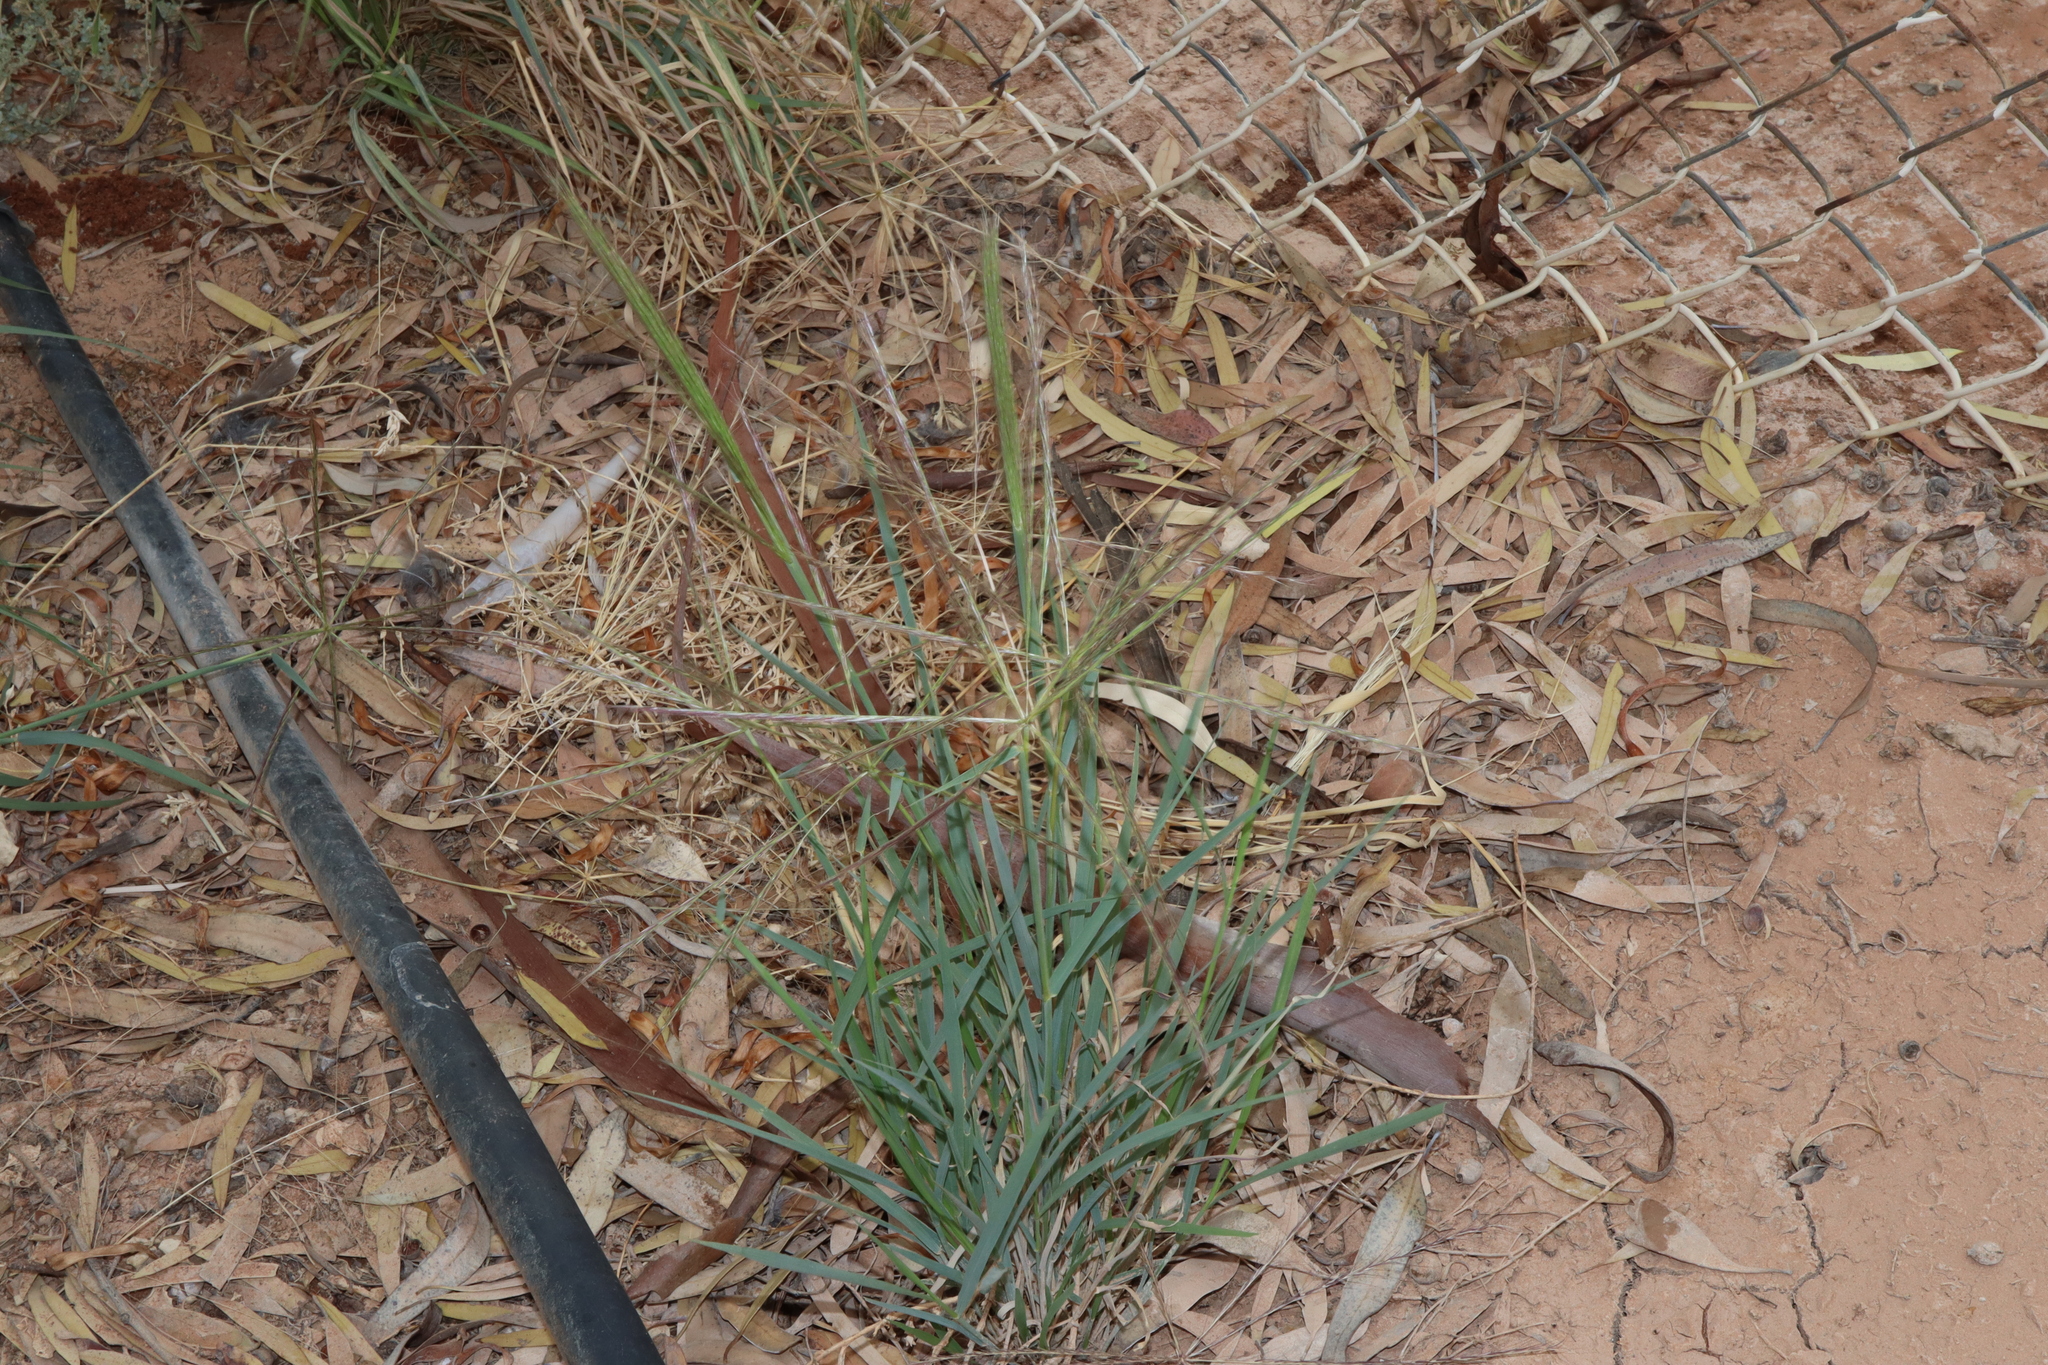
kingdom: Plantae
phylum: Tracheophyta
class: Liliopsida
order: Poales
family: Poaceae
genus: Enteropogon
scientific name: Enteropogon acicularis
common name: Curly windmill grass
